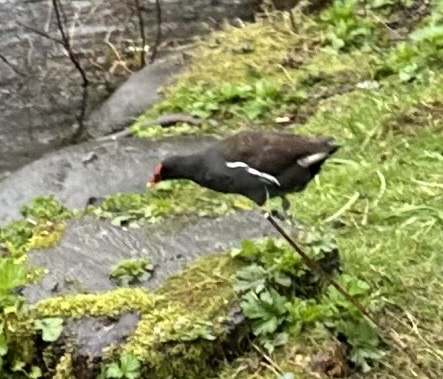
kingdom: Animalia
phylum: Chordata
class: Aves
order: Gruiformes
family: Rallidae
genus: Gallinula
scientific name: Gallinula chloropus
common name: Common moorhen
